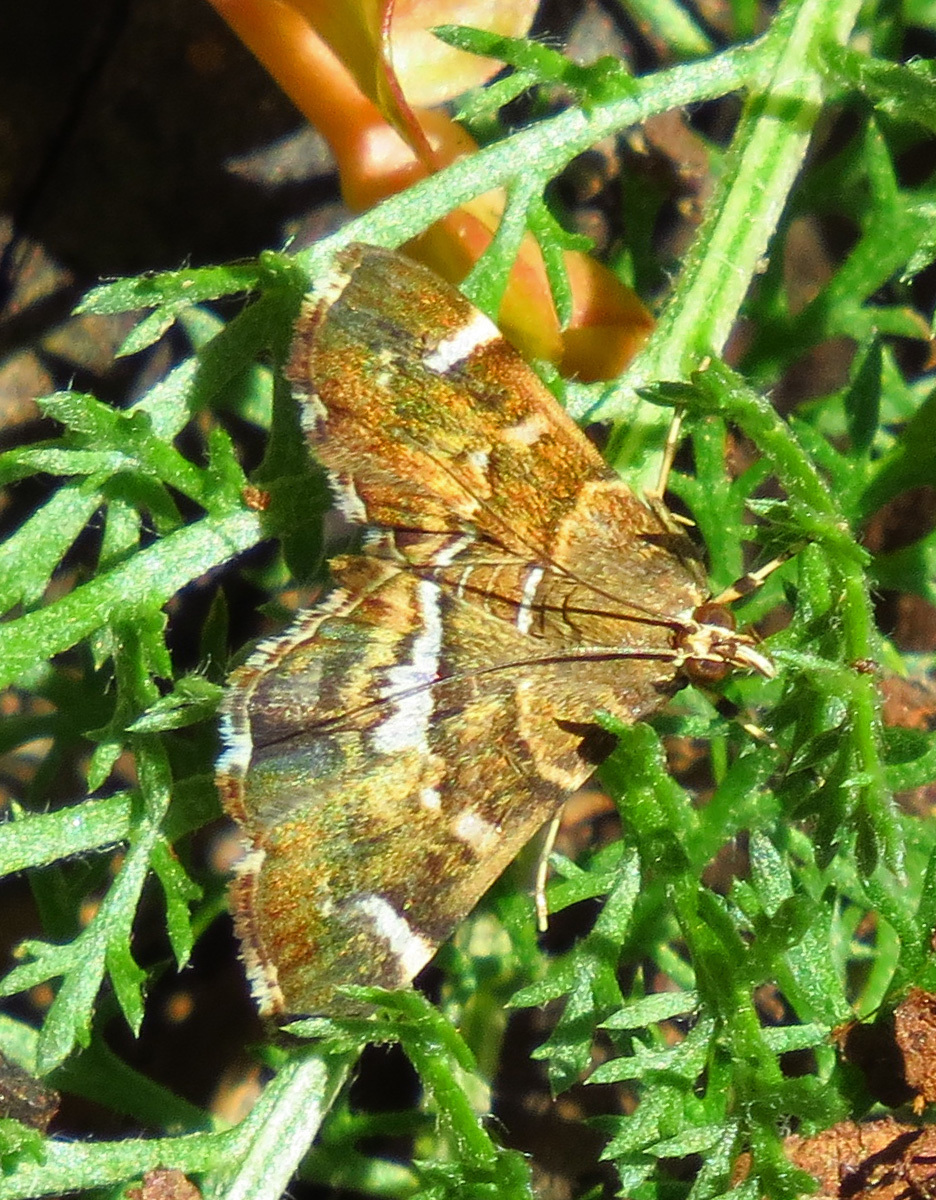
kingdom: Animalia
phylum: Arthropoda
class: Insecta
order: Lepidoptera
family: Crambidae
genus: Hymenia
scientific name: Hymenia perspectalis
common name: Spotted beet webworm
